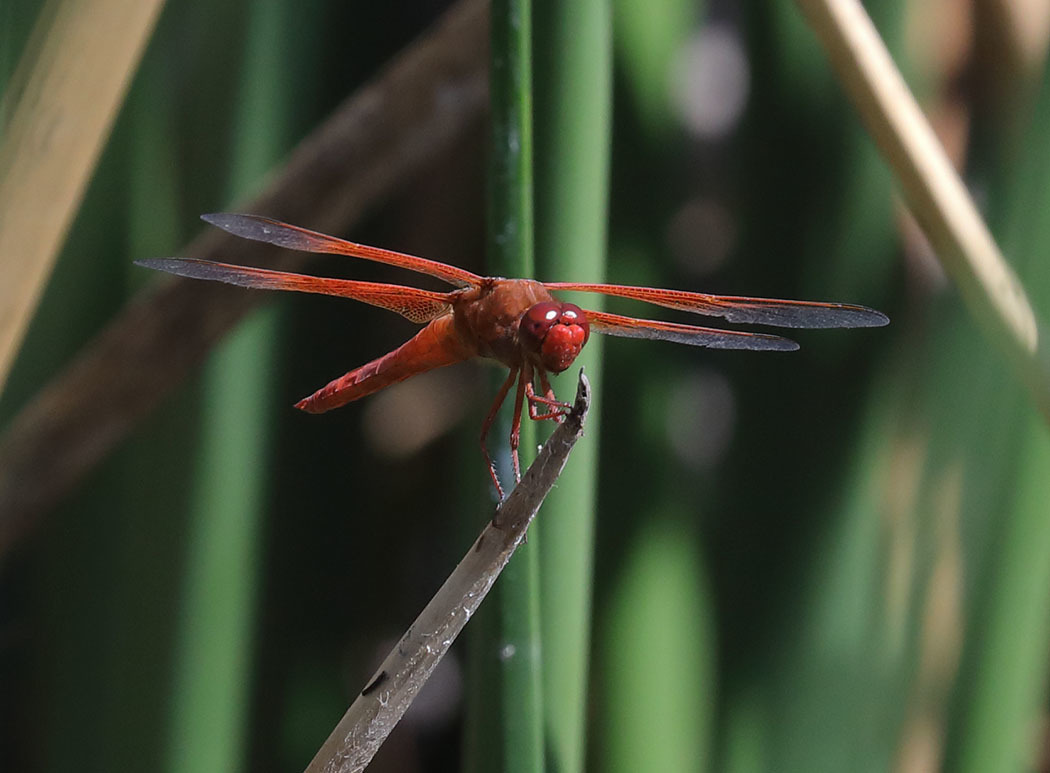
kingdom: Animalia
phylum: Arthropoda
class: Insecta
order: Odonata
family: Libellulidae
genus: Libellula
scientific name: Libellula saturata
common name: Flame skimmer
